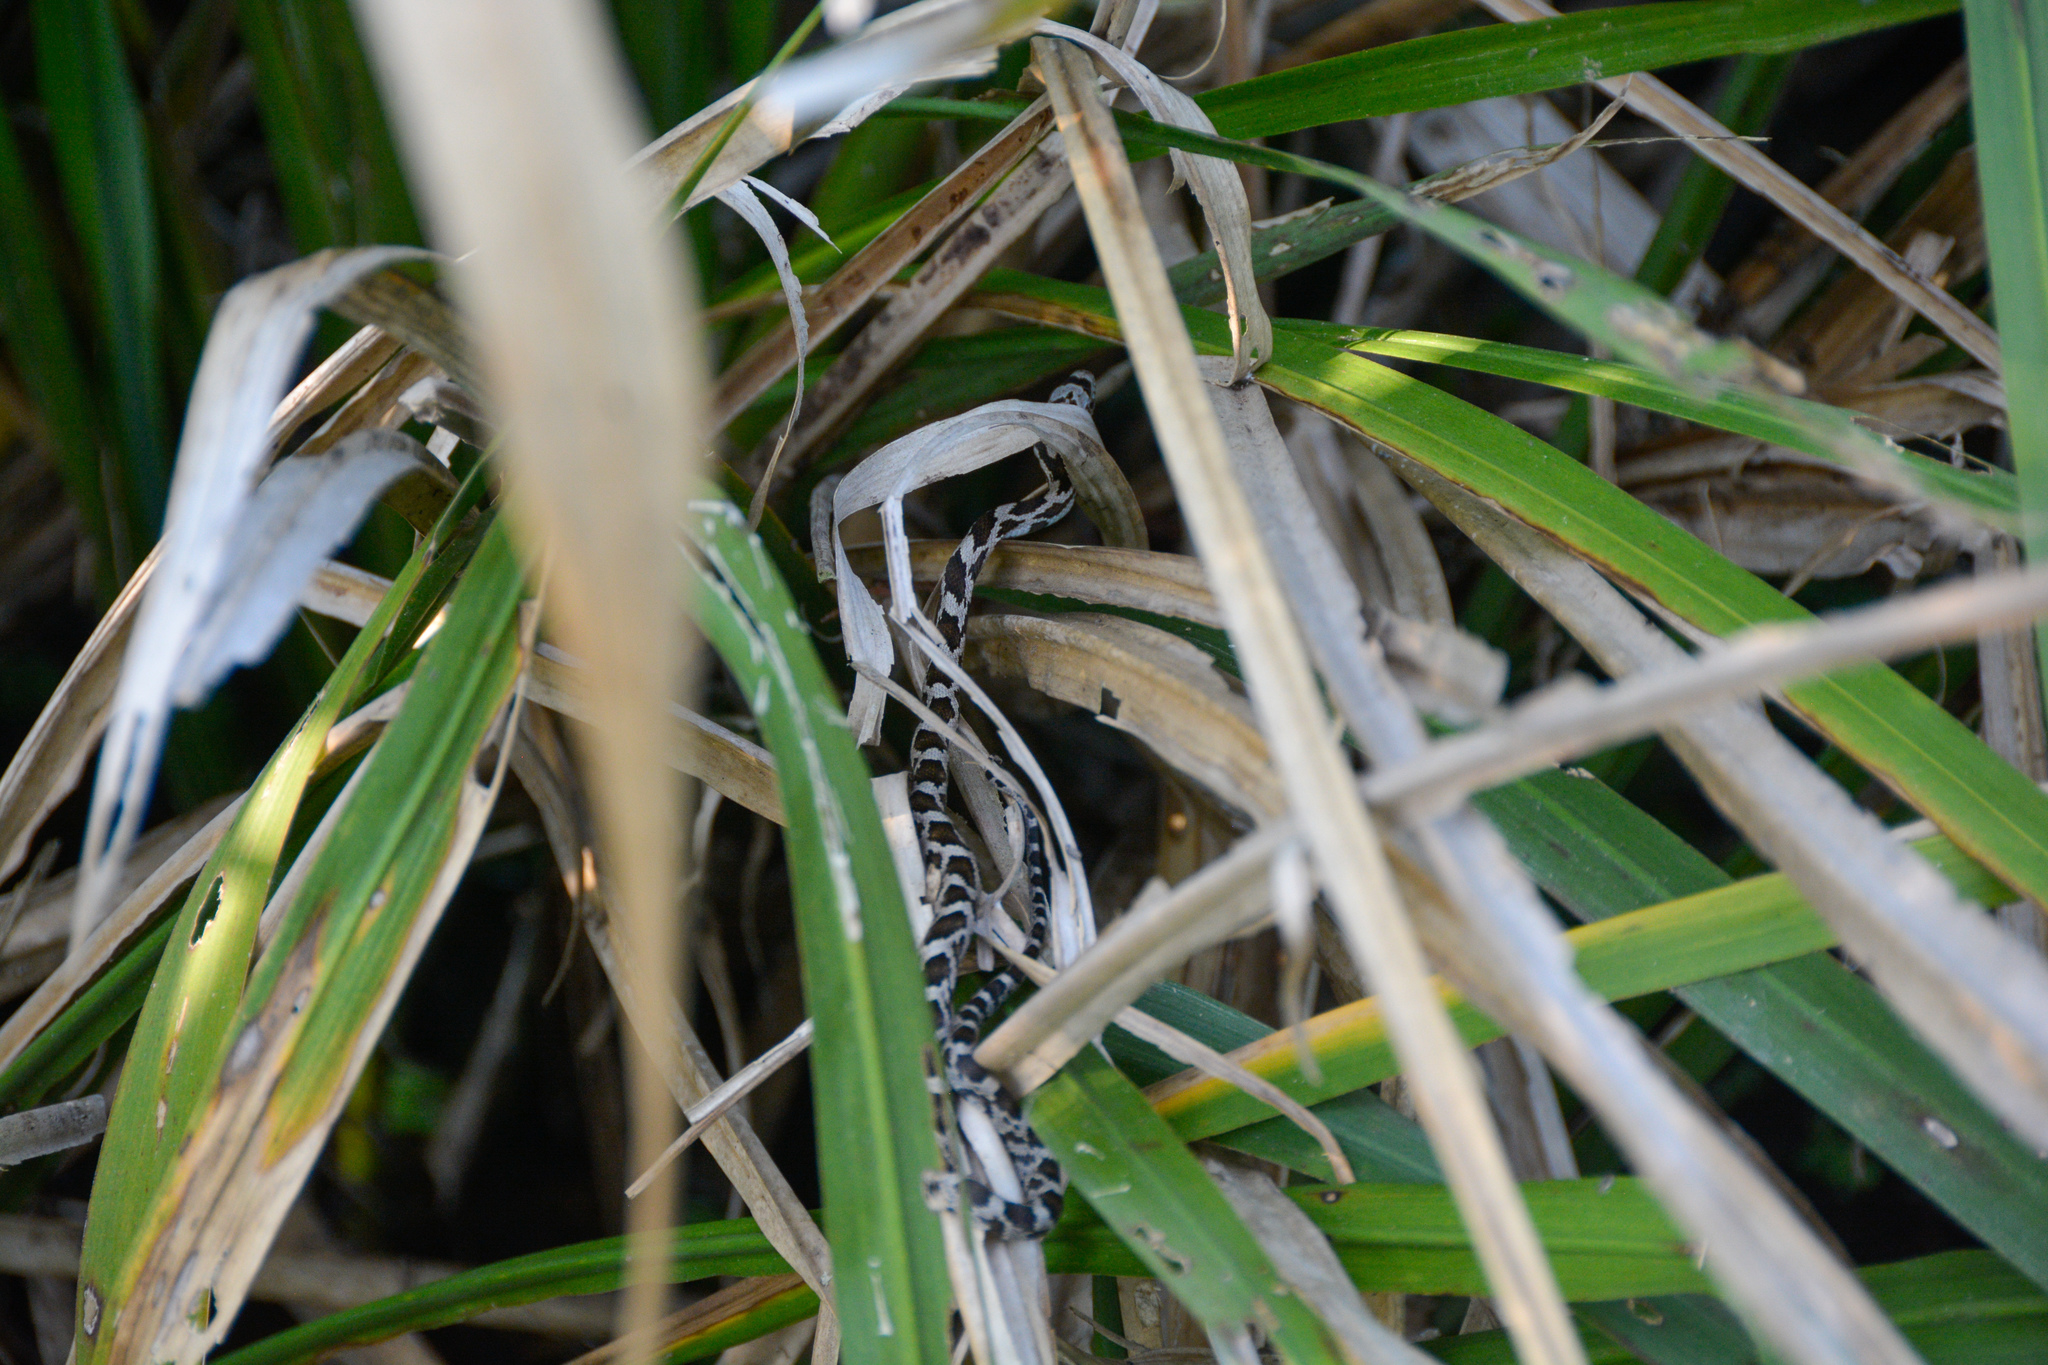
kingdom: Animalia
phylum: Chordata
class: Squamata
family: Colubridae
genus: Pantherophis
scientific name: Pantherophis spiloides
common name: Gray rat snake
